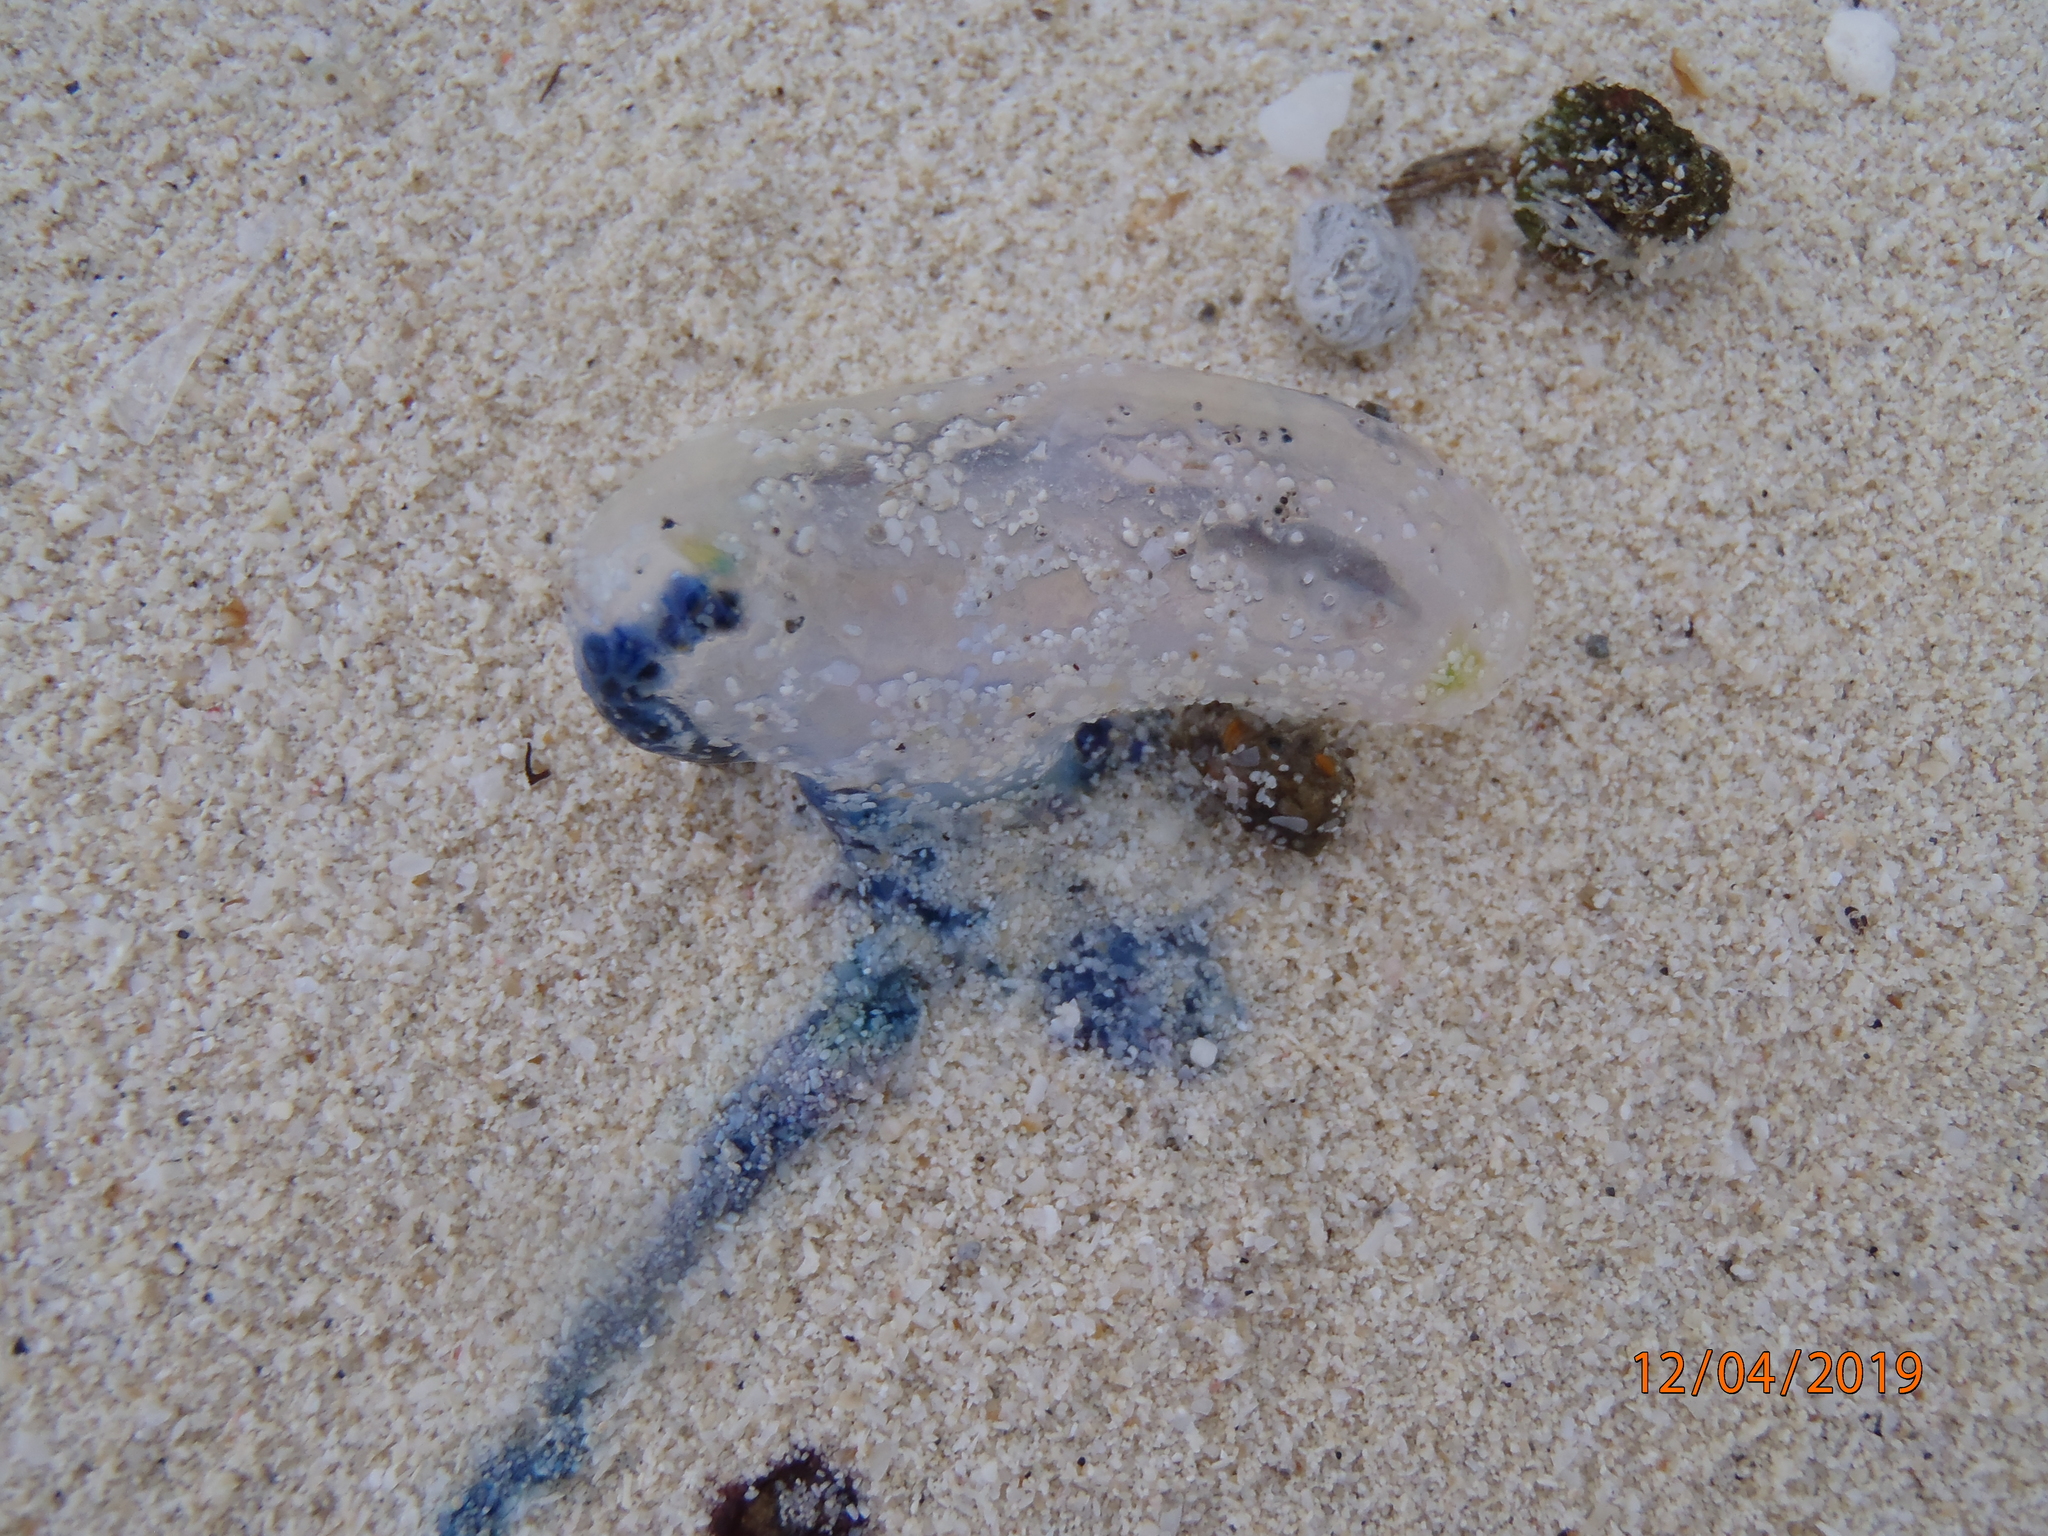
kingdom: Animalia
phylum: Cnidaria
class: Hydrozoa
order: Siphonophorae
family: Physaliidae
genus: Physalia
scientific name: Physalia physalis
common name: Portuguese man-of-war
